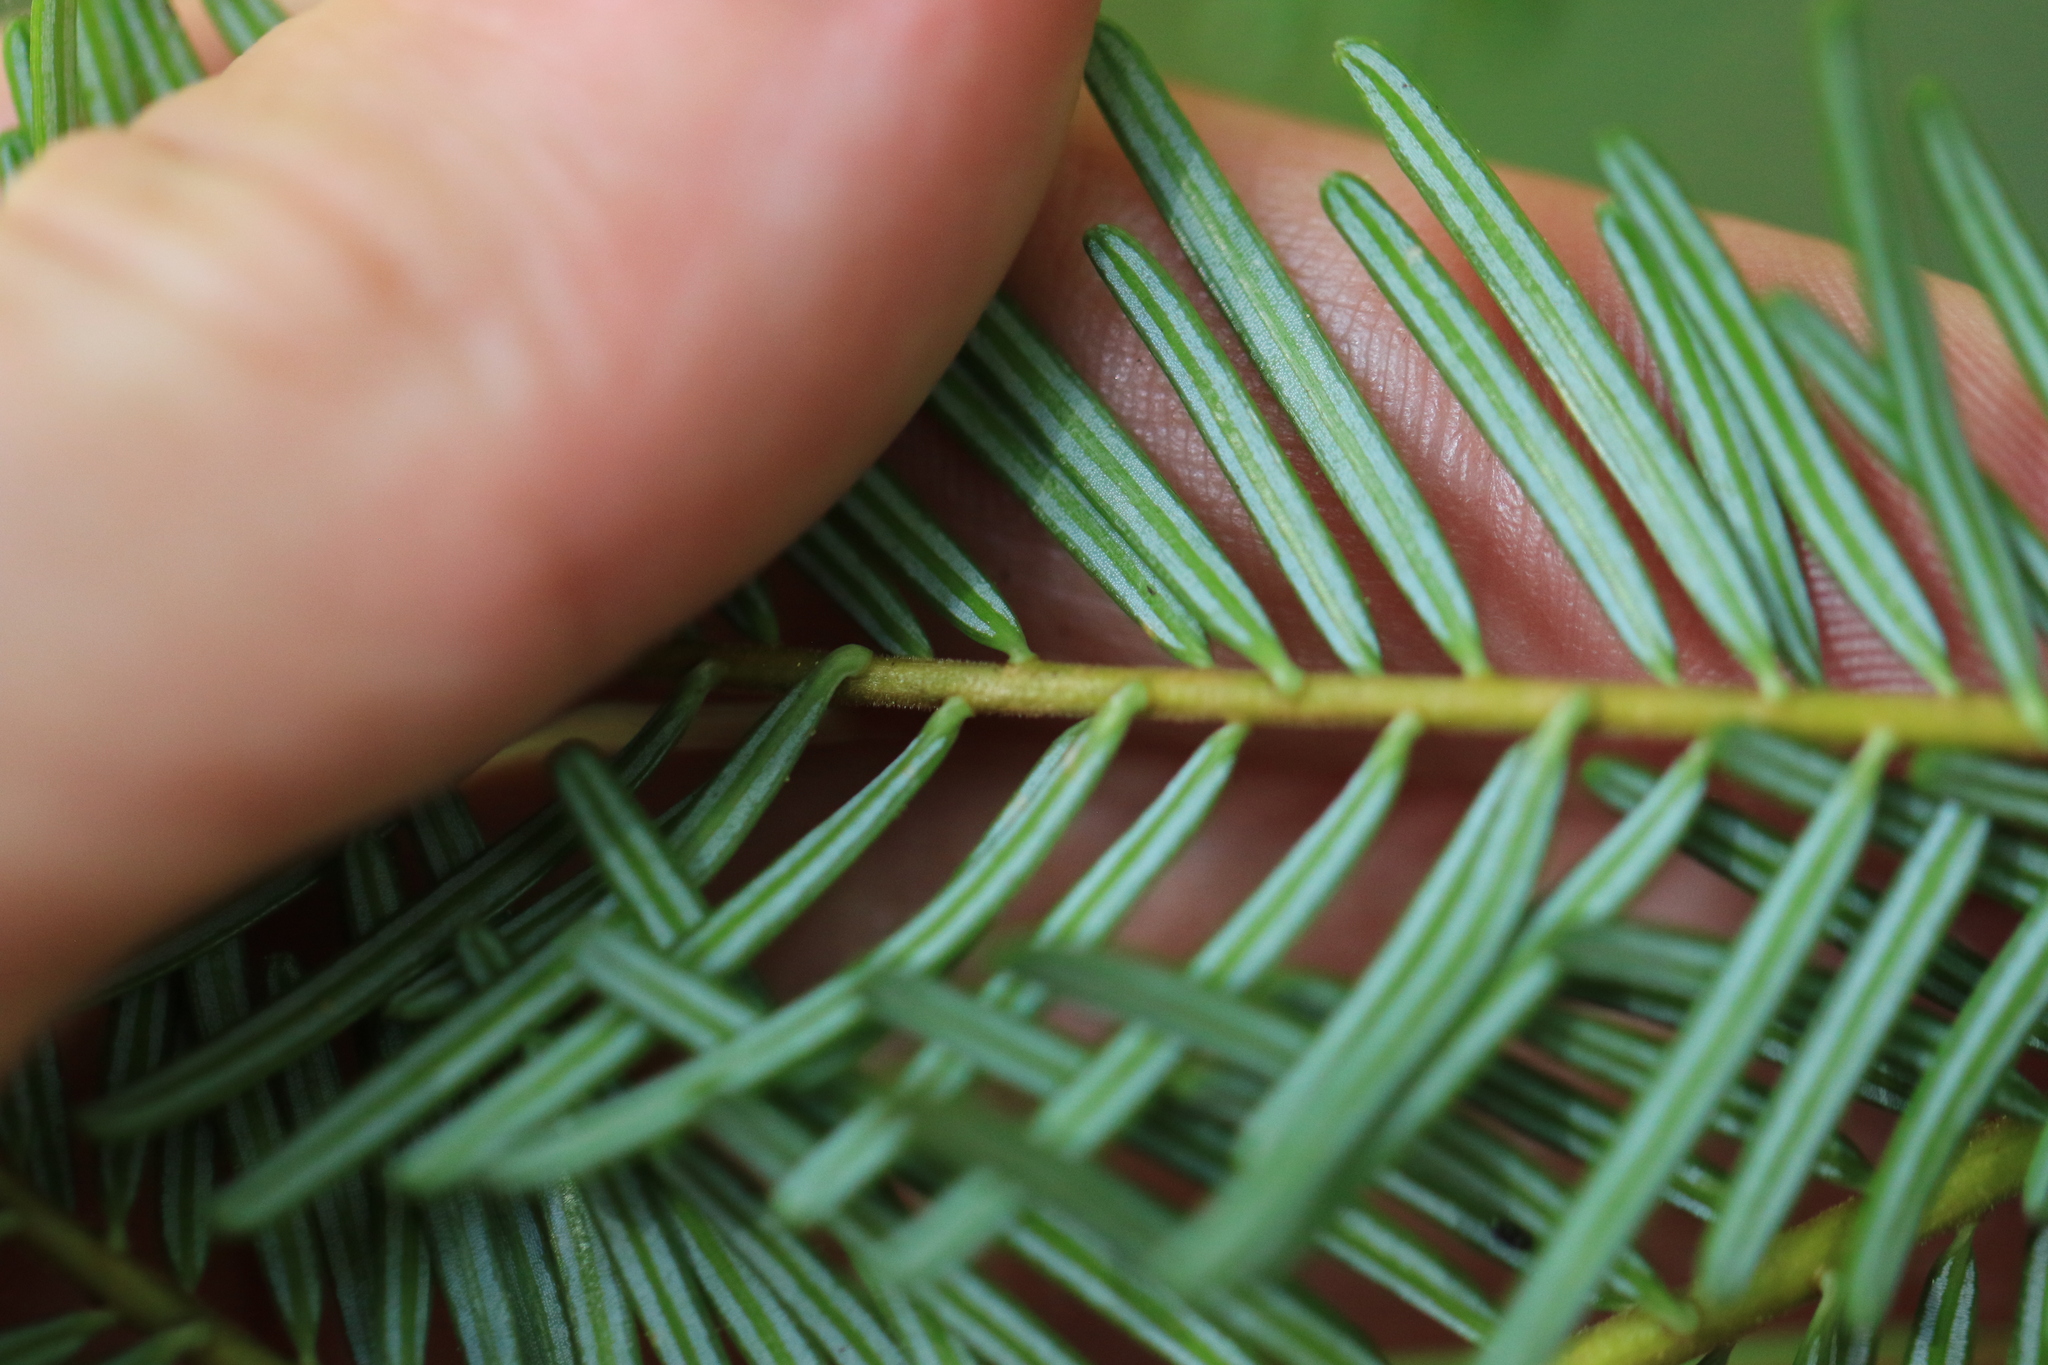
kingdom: Plantae
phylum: Tracheophyta
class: Pinopsida
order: Pinales
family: Pinaceae
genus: Abies
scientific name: Abies grandis
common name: Giant fir
